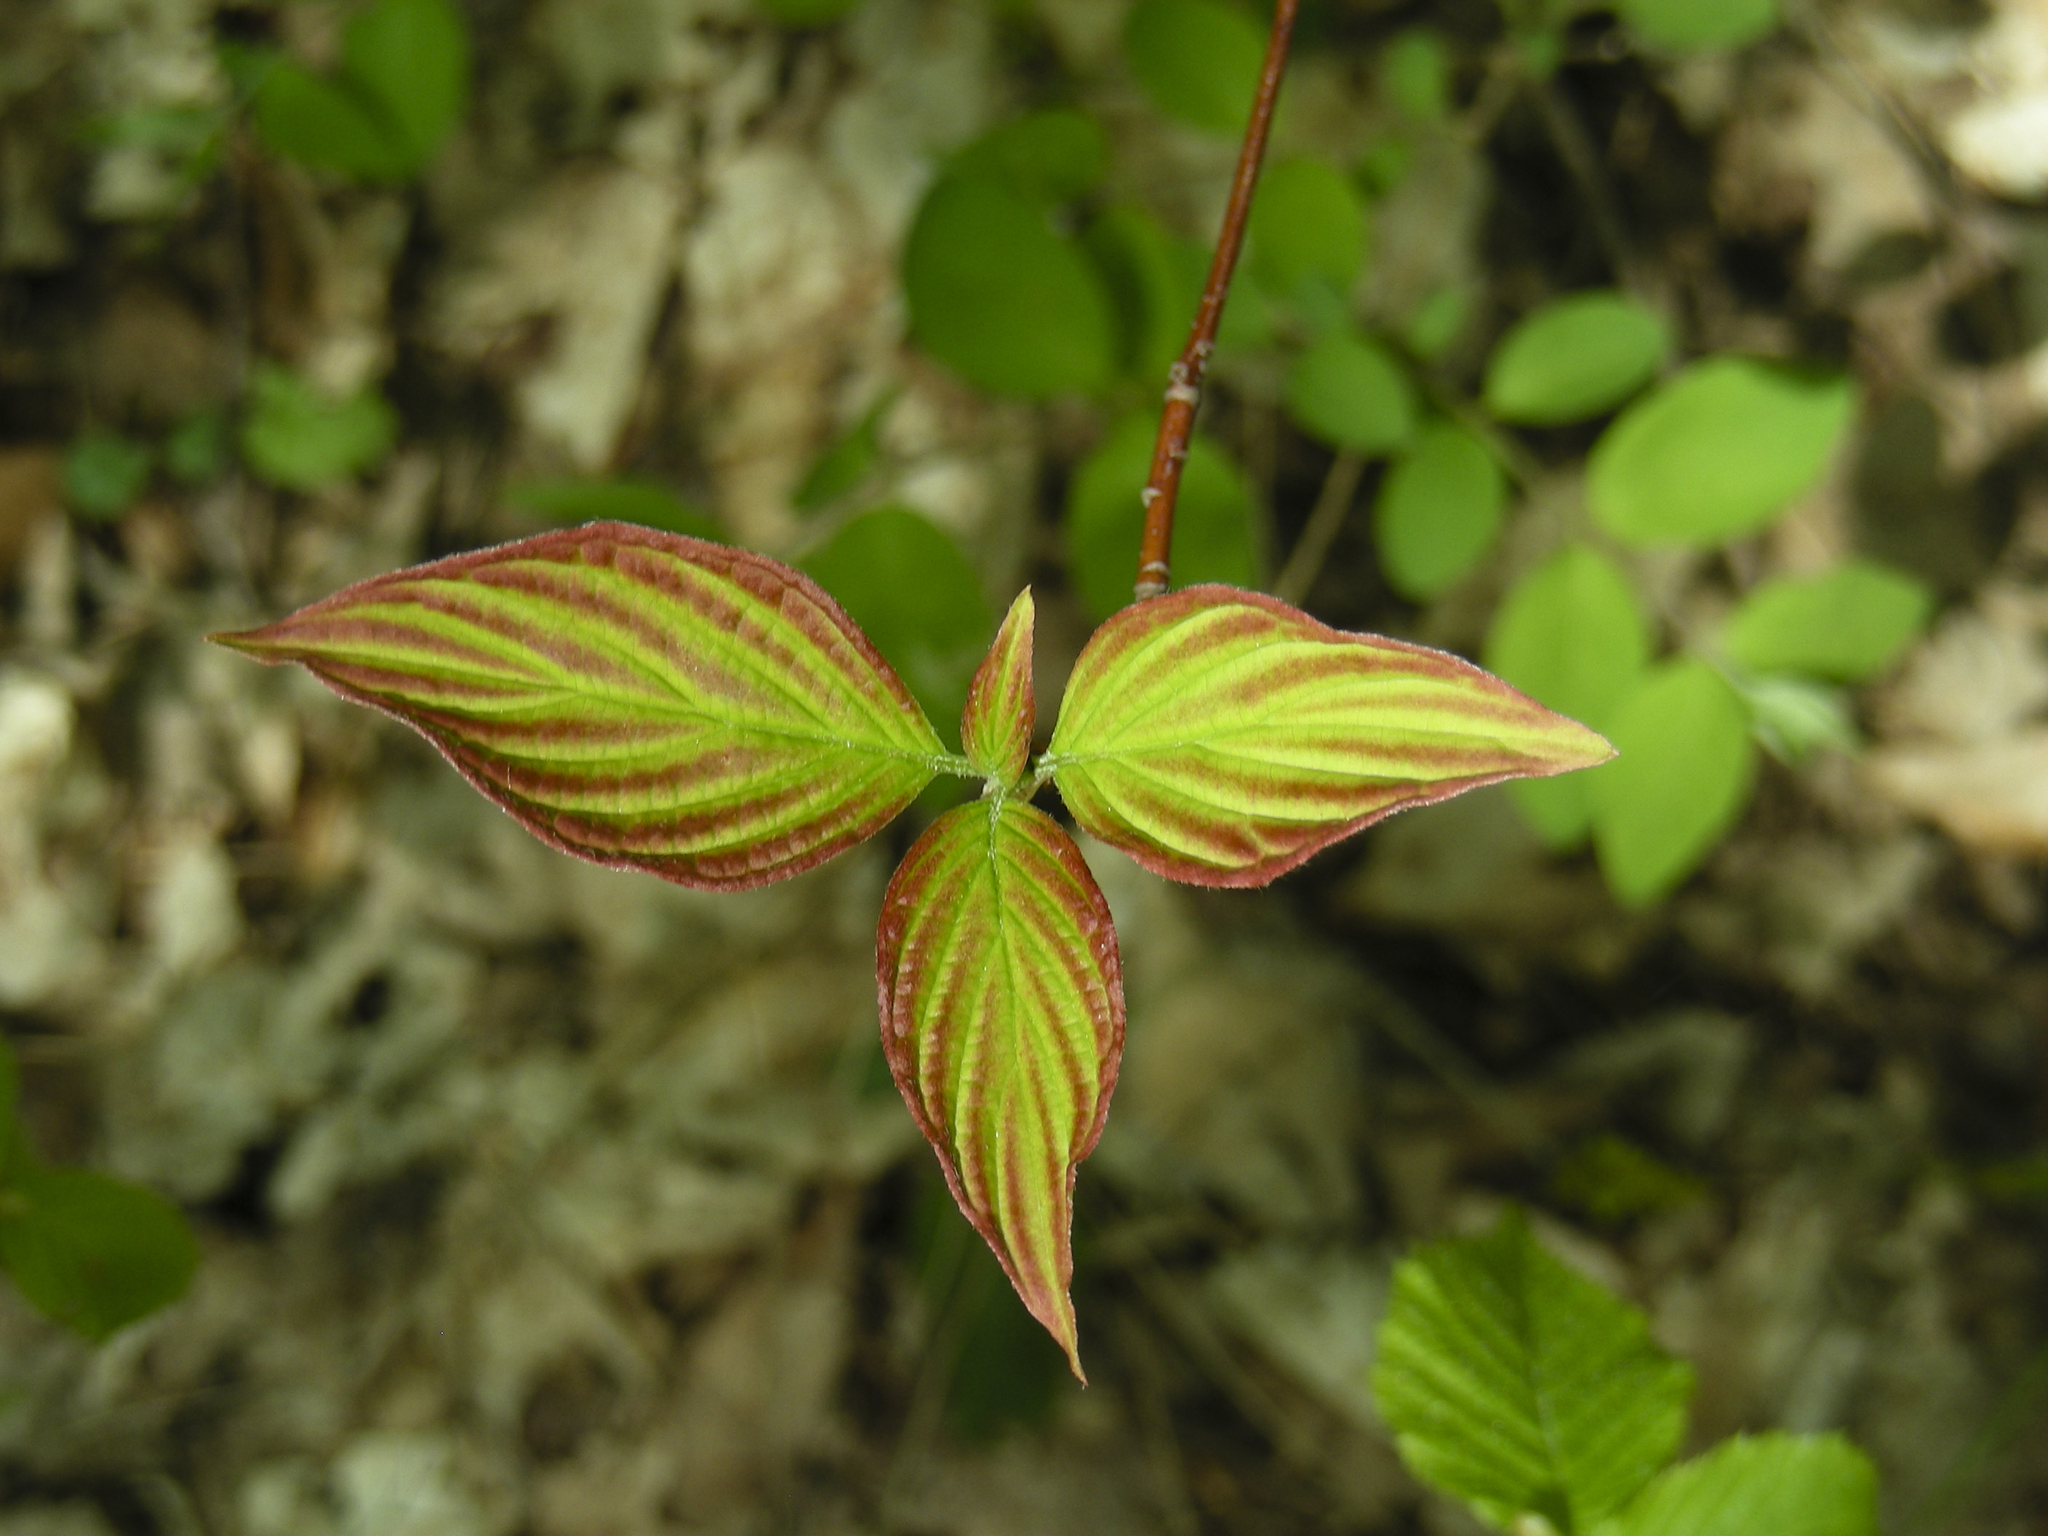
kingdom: Plantae
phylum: Tracheophyta
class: Magnoliopsida
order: Cornales
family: Cornaceae
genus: Cornus
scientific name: Cornus alternifolia
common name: Pagoda dogwood
